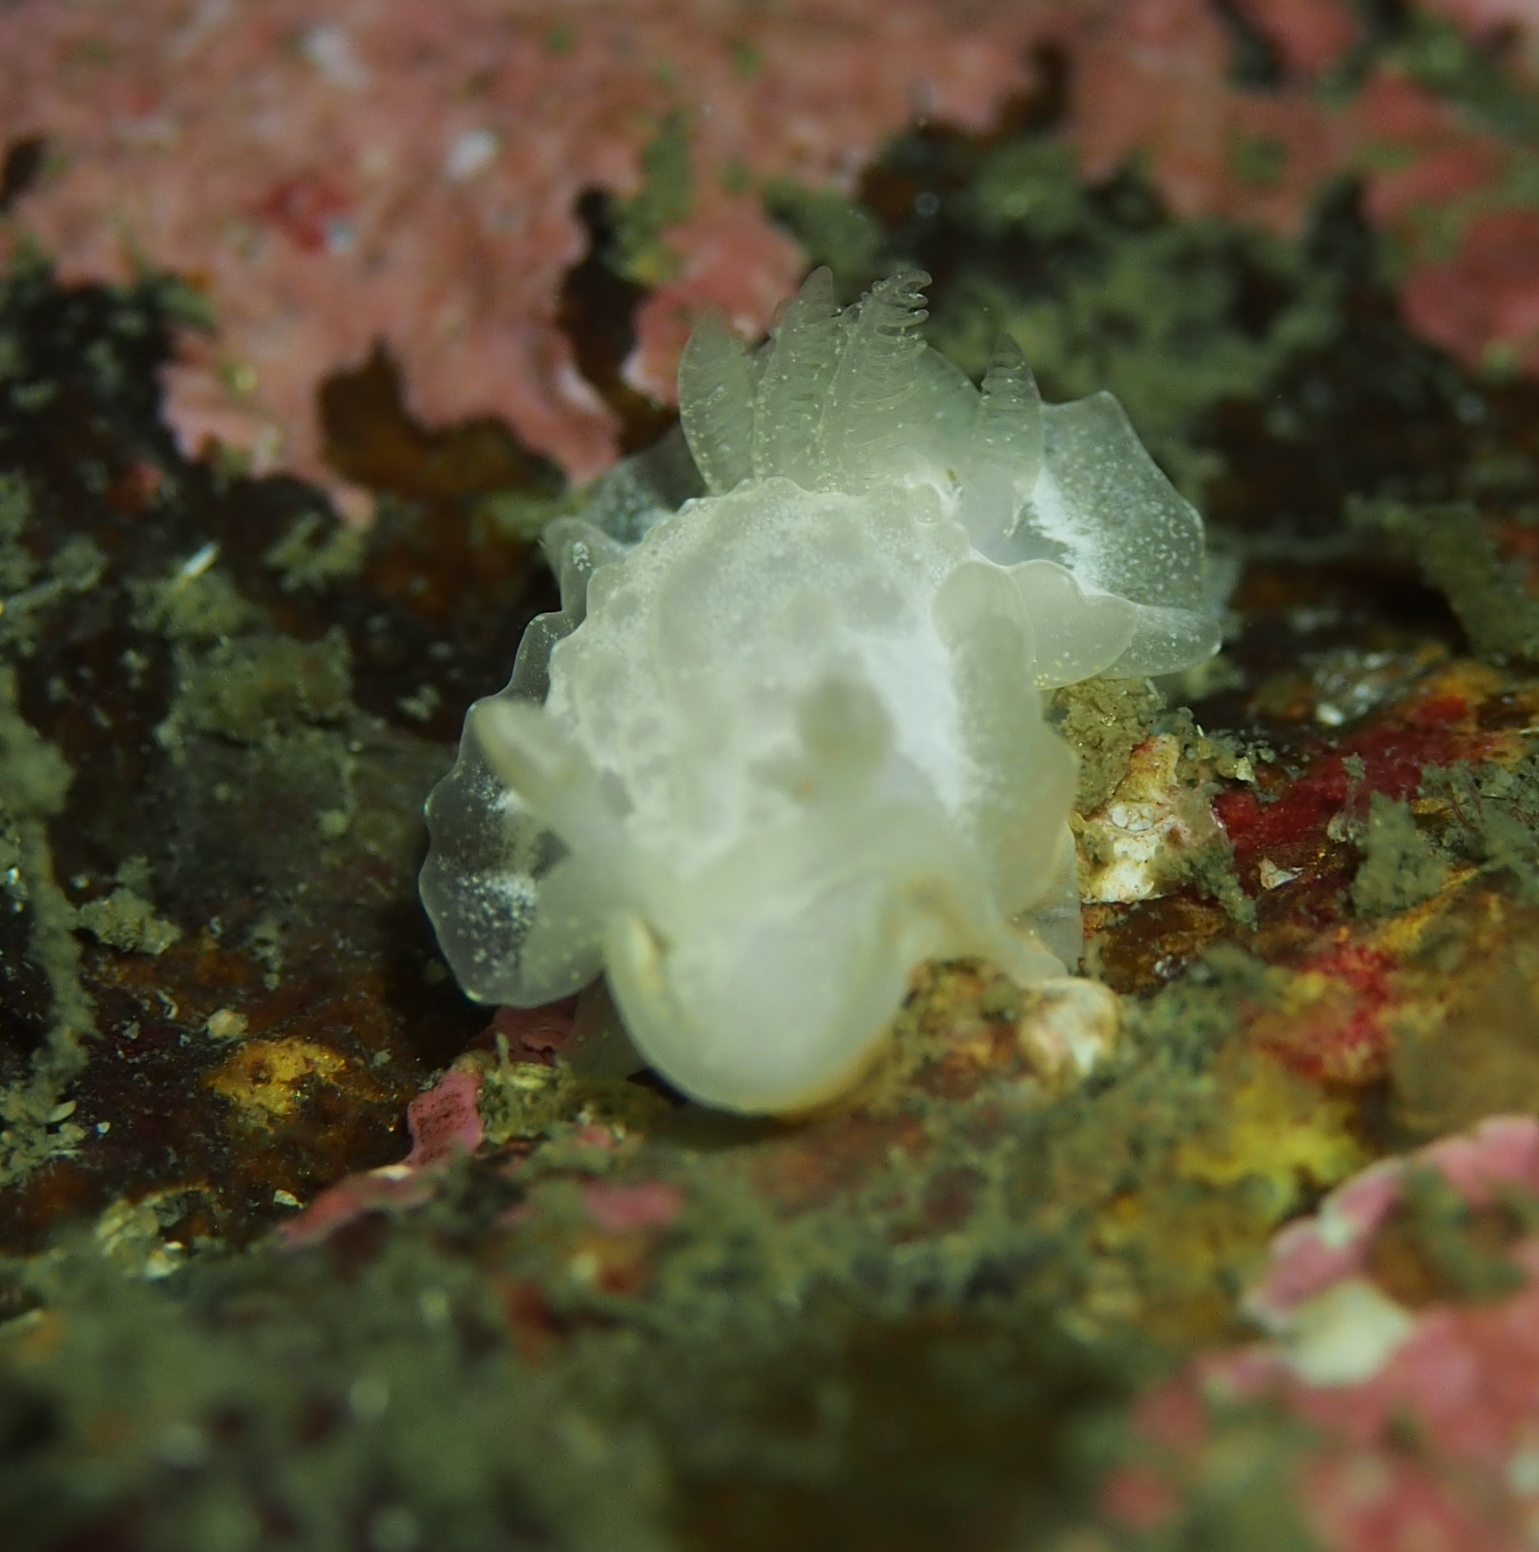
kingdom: Animalia
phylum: Mollusca
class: Gastropoda
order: Nudibranchia
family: Goniodorididae
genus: Okenia
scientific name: Okenia
